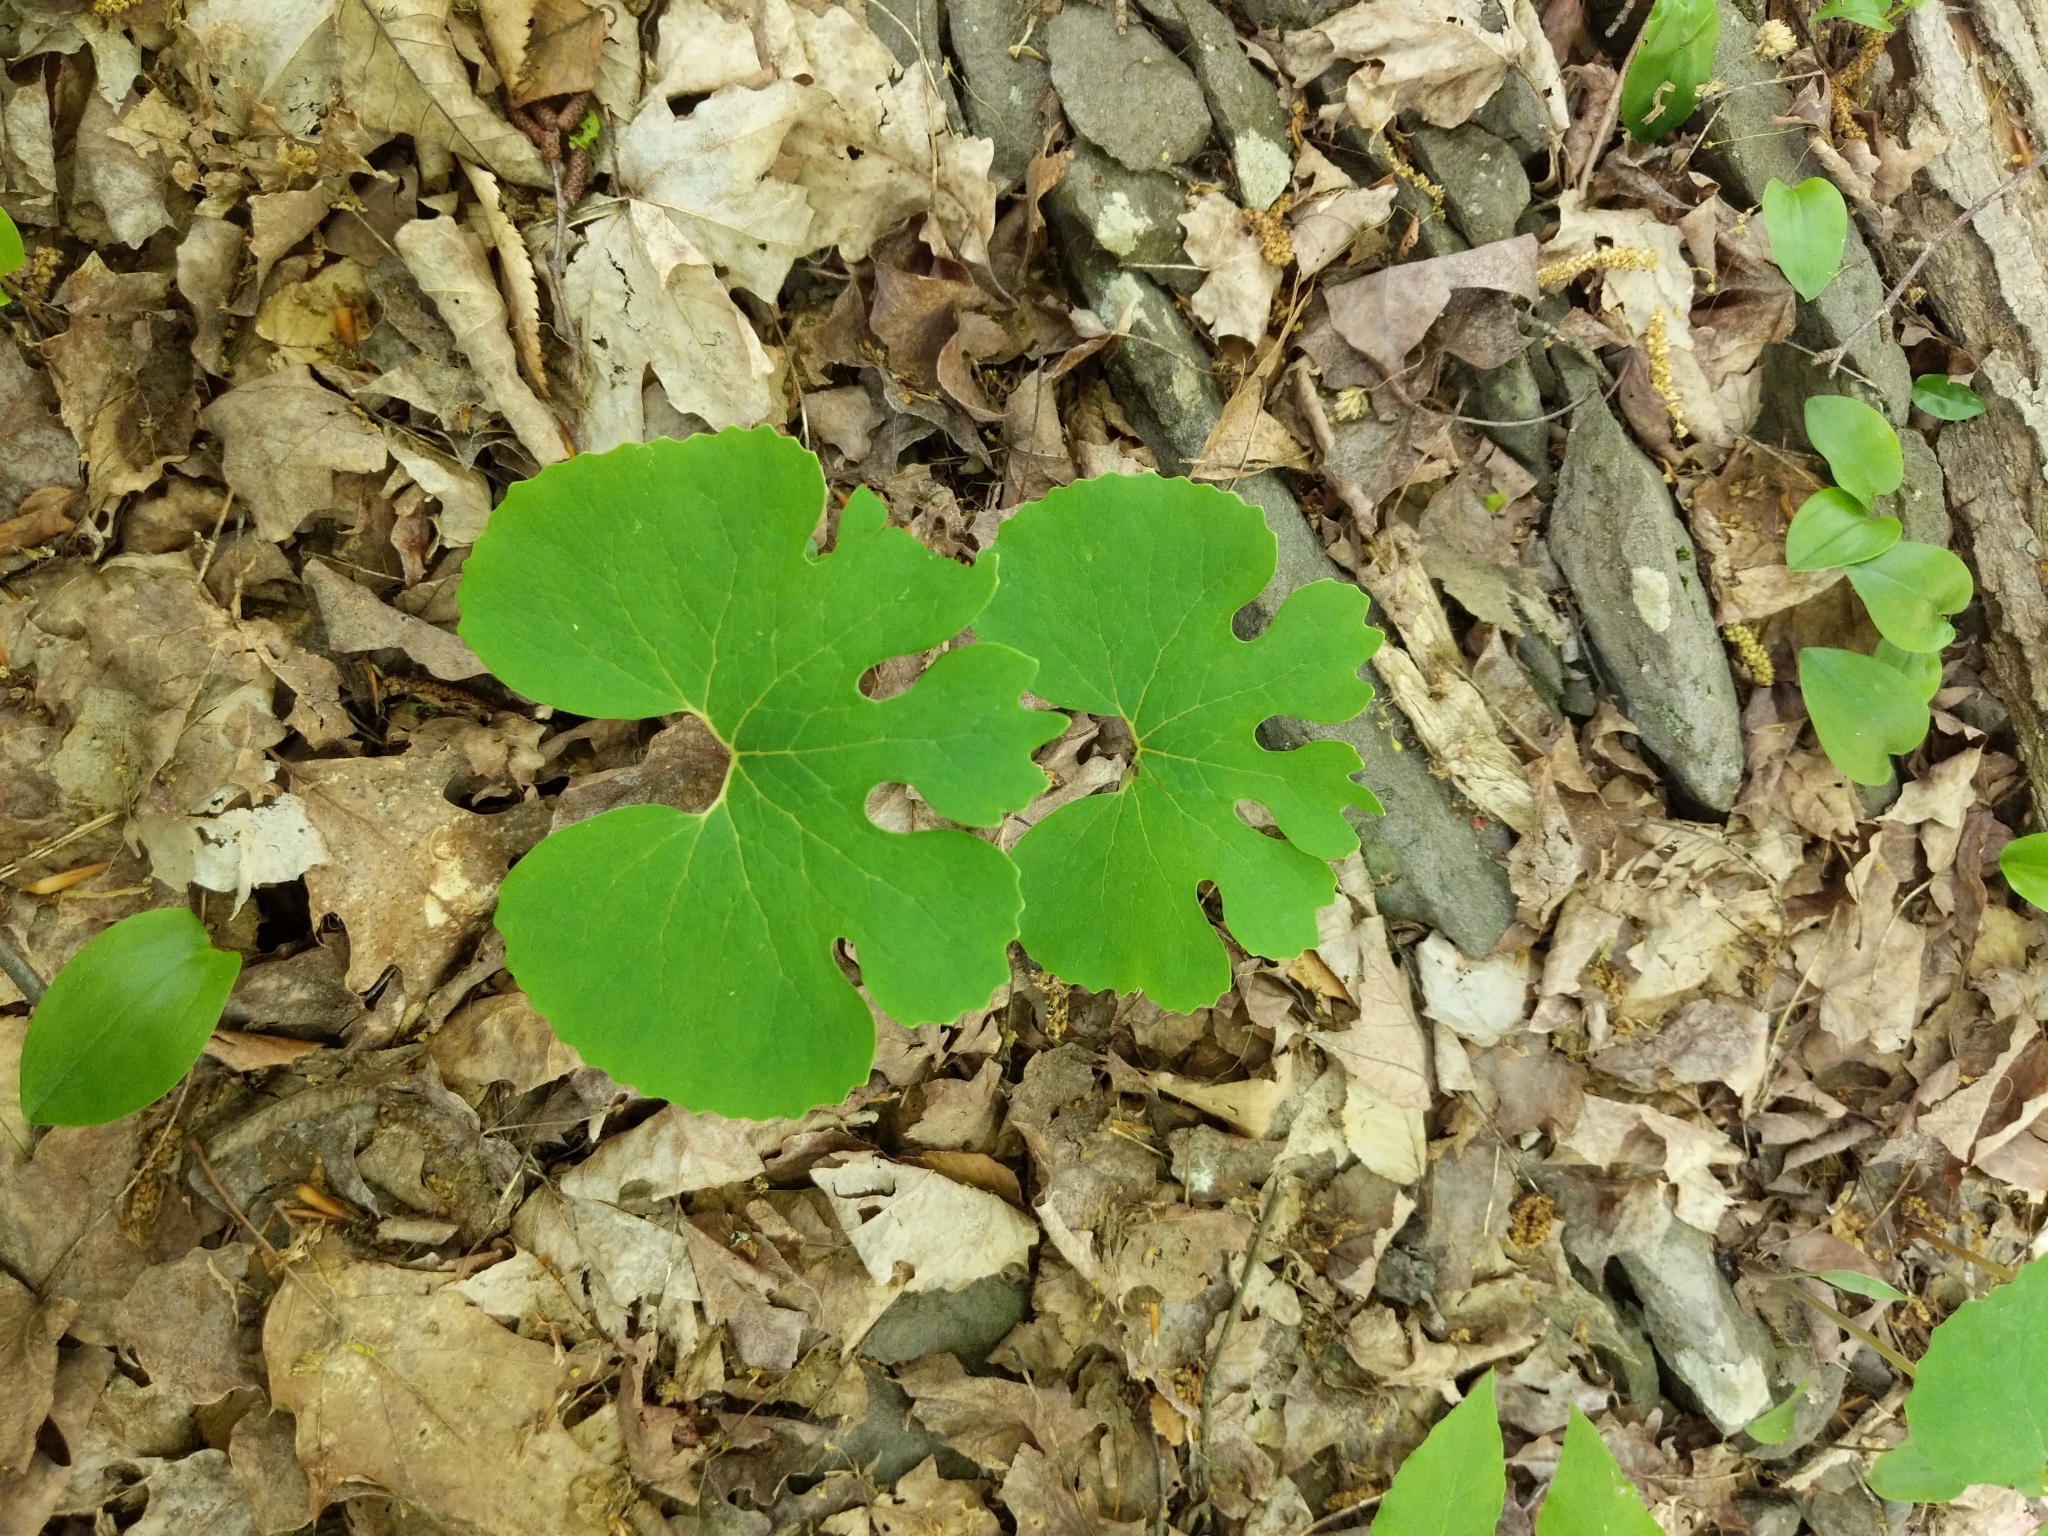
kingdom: Plantae
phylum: Tracheophyta
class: Magnoliopsida
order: Ranunculales
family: Papaveraceae
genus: Sanguinaria
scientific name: Sanguinaria canadensis
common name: Bloodroot
